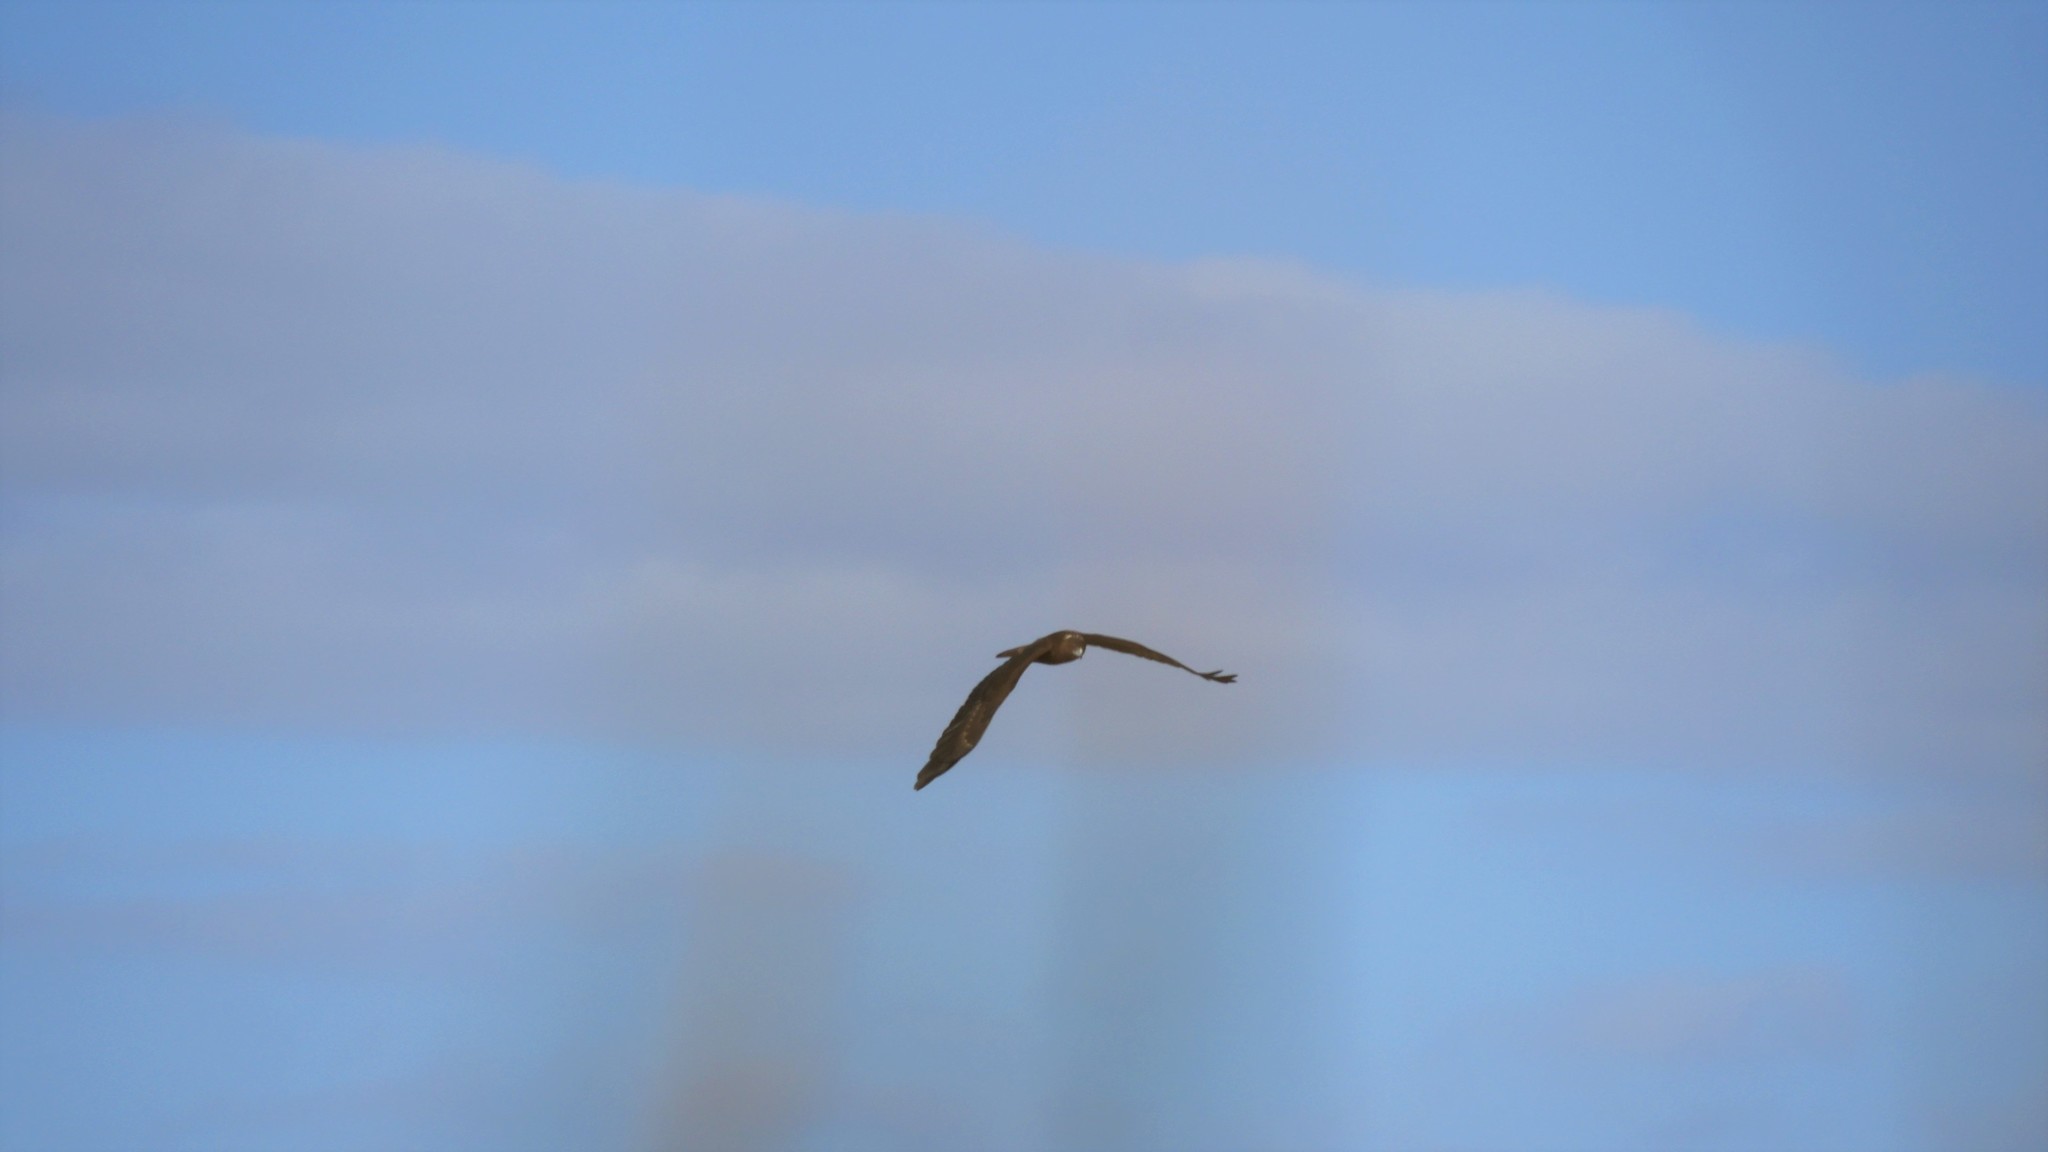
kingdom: Animalia
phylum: Chordata
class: Aves
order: Accipitriformes
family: Accipitridae
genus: Circus
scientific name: Circus approximans
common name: Swamp harrier
